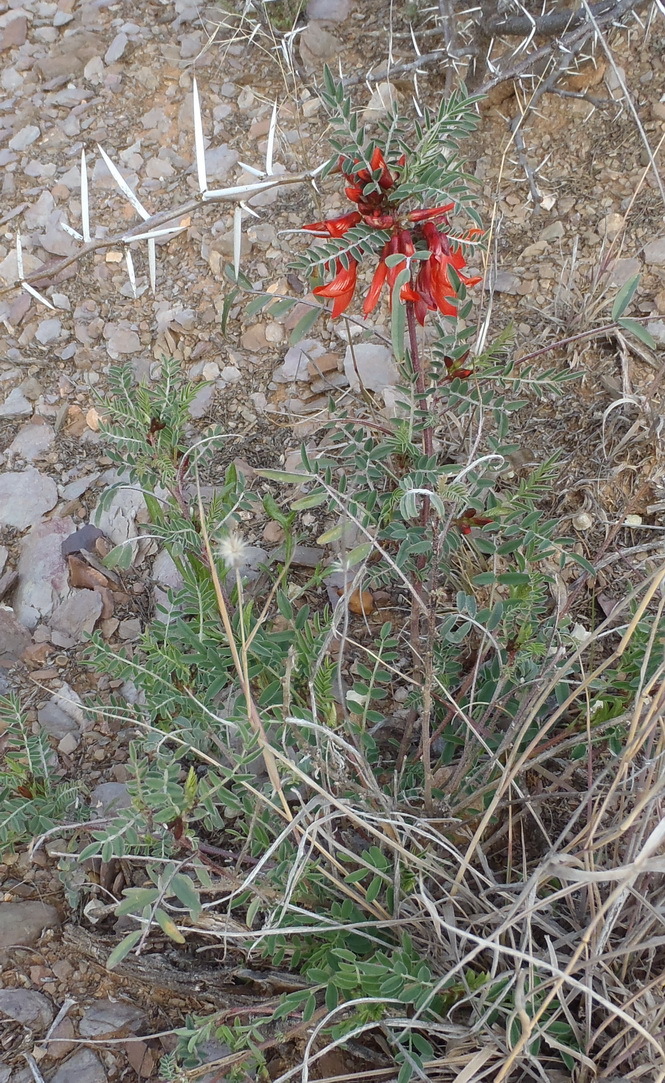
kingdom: Plantae
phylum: Tracheophyta
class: Magnoliopsida
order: Fabales
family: Fabaceae
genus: Lessertia
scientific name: Lessertia frutescens
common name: Balloon-pea
